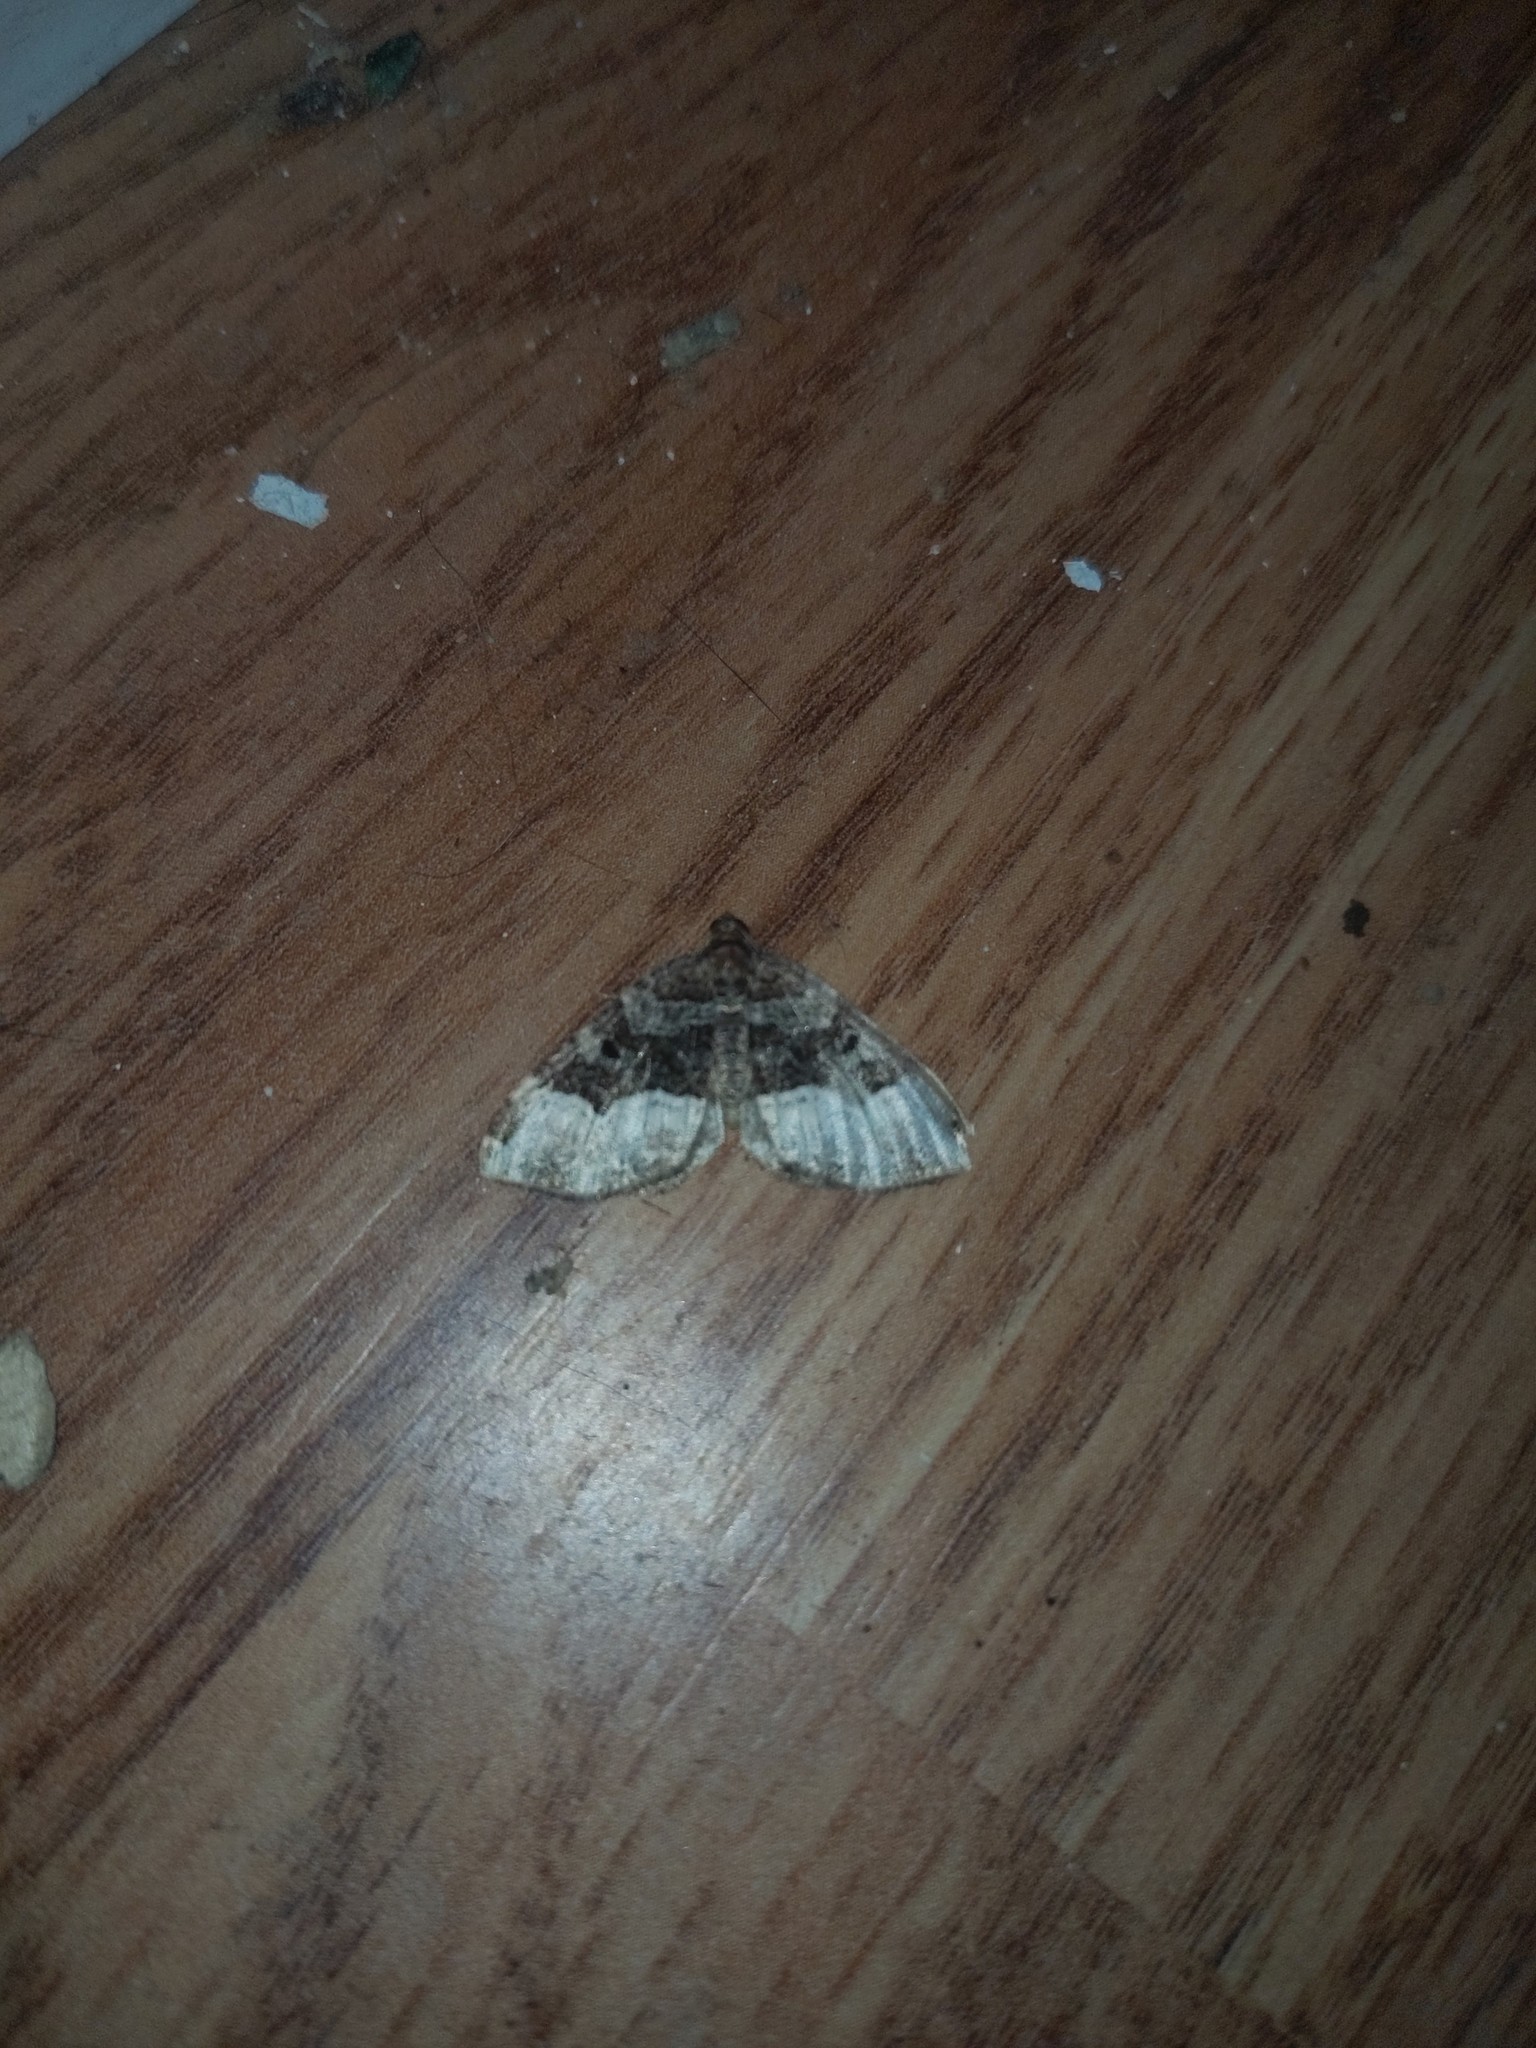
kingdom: Animalia
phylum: Arthropoda
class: Insecta
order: Lepidoptera
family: Geometridae
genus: Euphyia
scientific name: Euphyia intermediata
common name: Sharp-angled carpet
